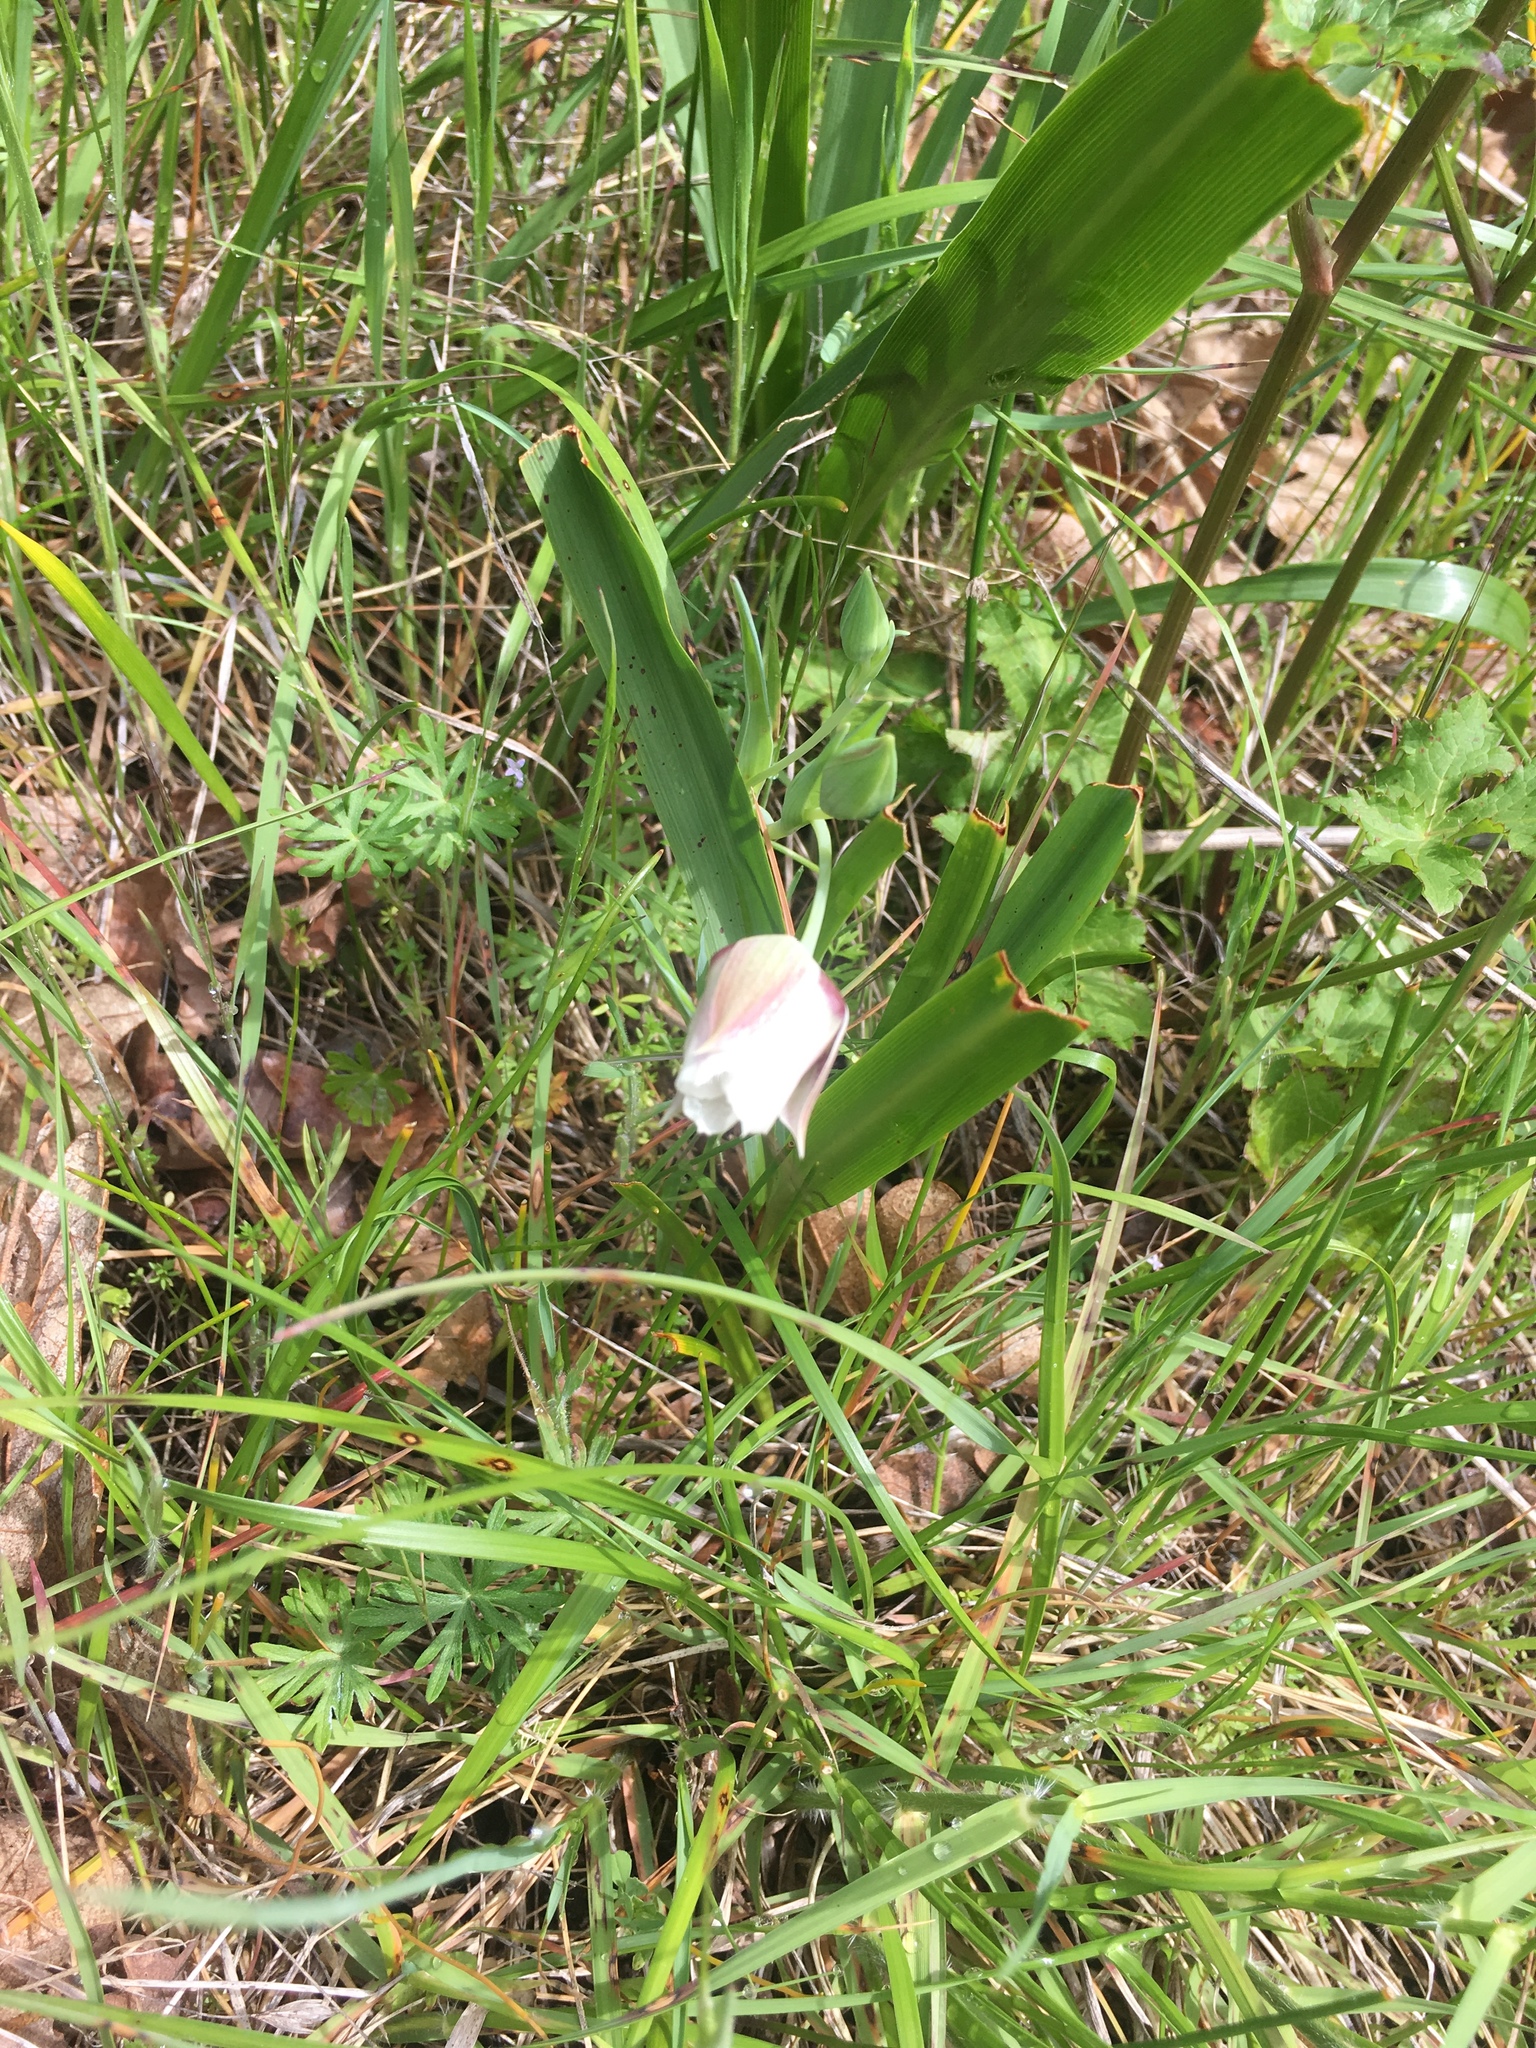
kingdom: Plantae
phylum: Tracheophyta
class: Liliopsida
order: Liliales
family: Liliaceae
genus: Calochortus
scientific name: Calochortus tolmiei
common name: Pussy-ears
